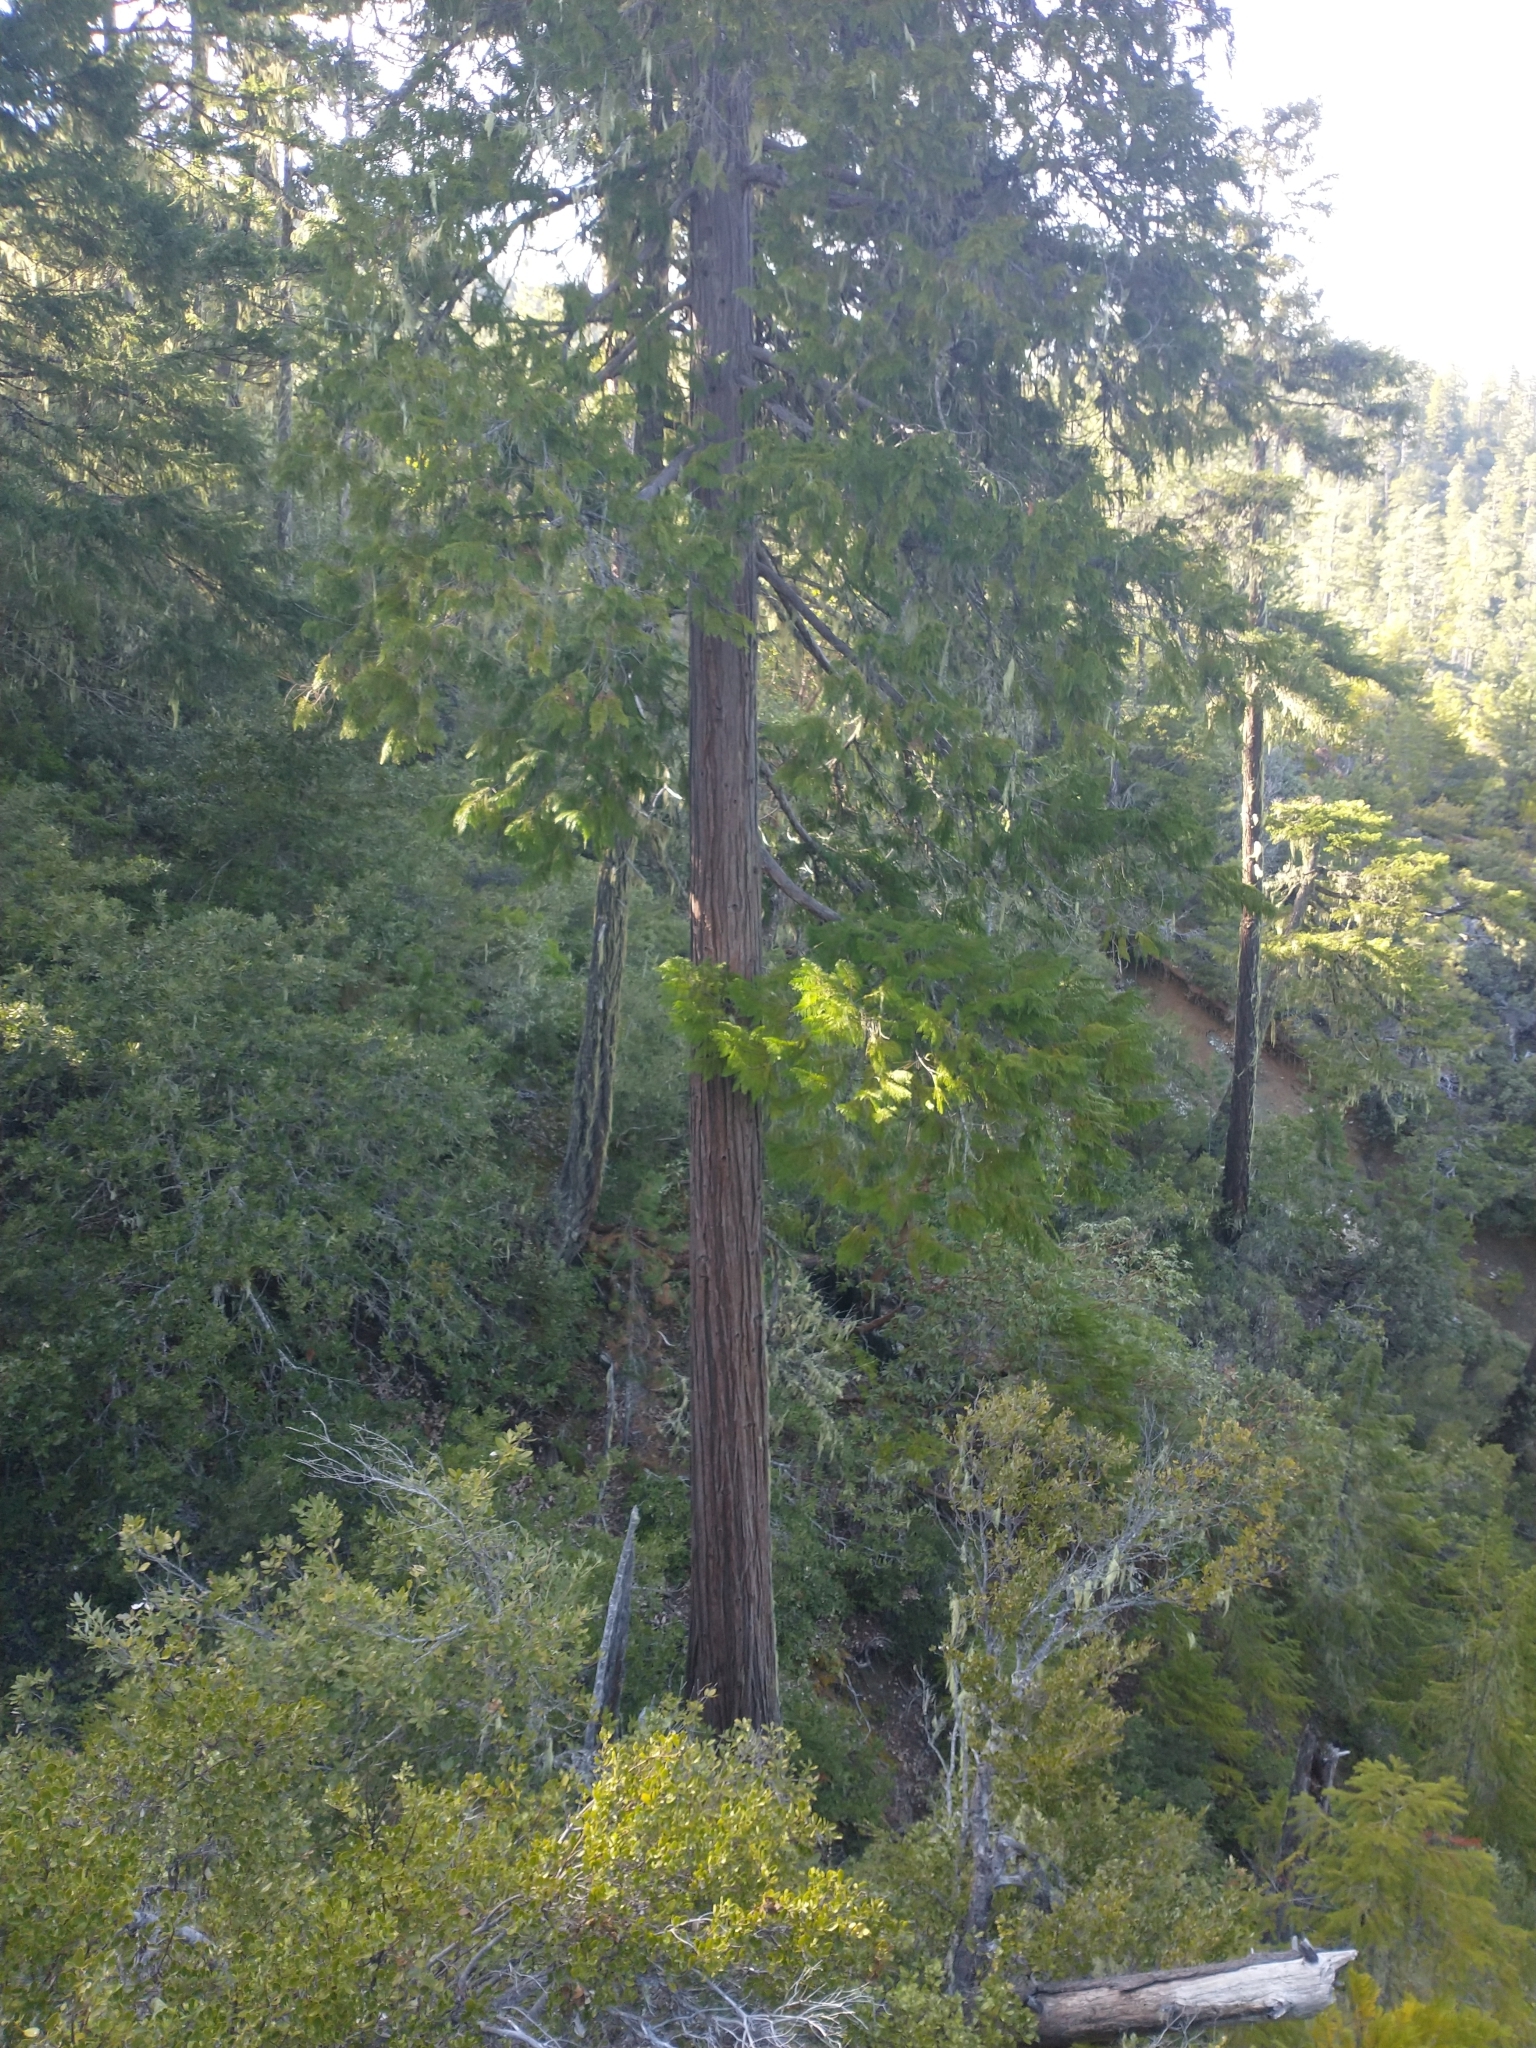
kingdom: Plantae
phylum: Tracheophyta
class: Pinopsida
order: Pinales
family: Cupressaceae
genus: Chamaecyparis
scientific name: Chamaecyparis lawsoniana
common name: Lawson's cypress
